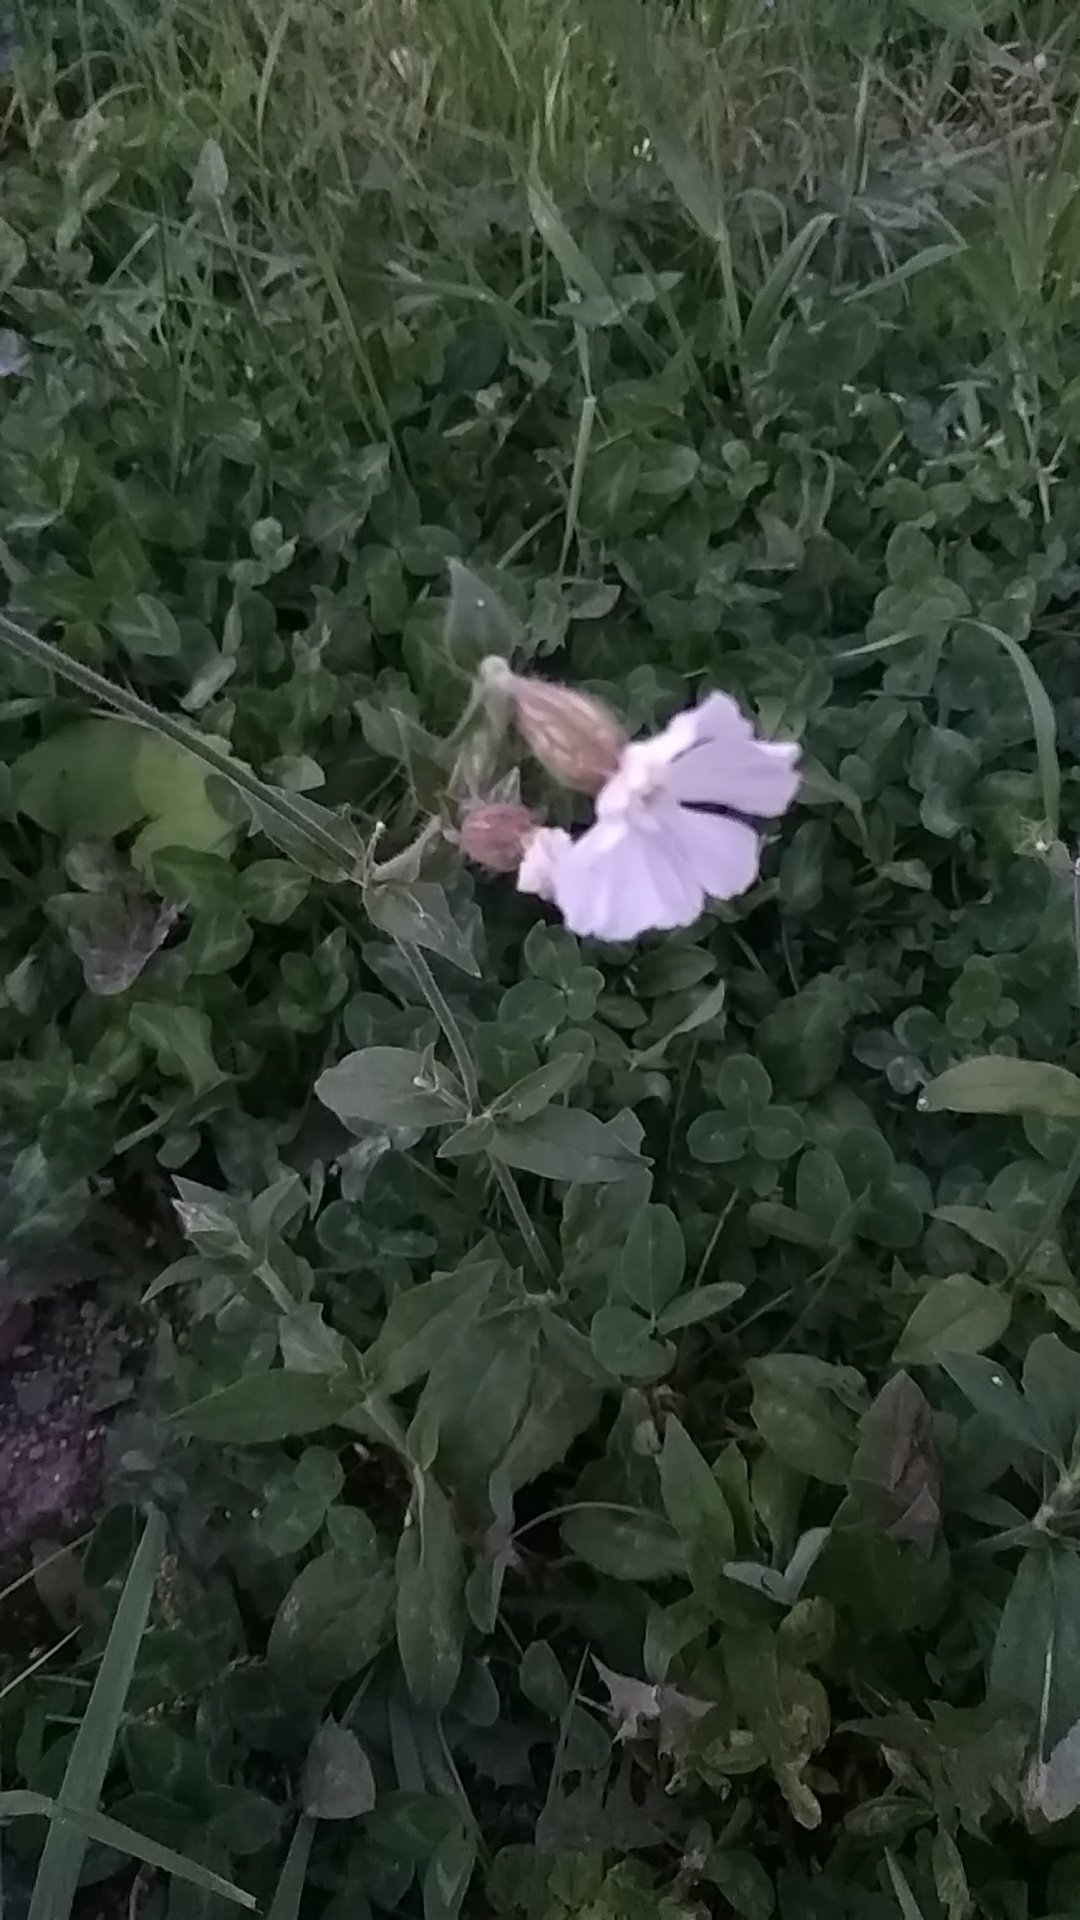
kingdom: Plantae
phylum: Tracheophyta
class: Magnoliopsida
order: Caryophyllales
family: Caryophyllaceae
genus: Silene
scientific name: Silene latifolia
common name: White campion
